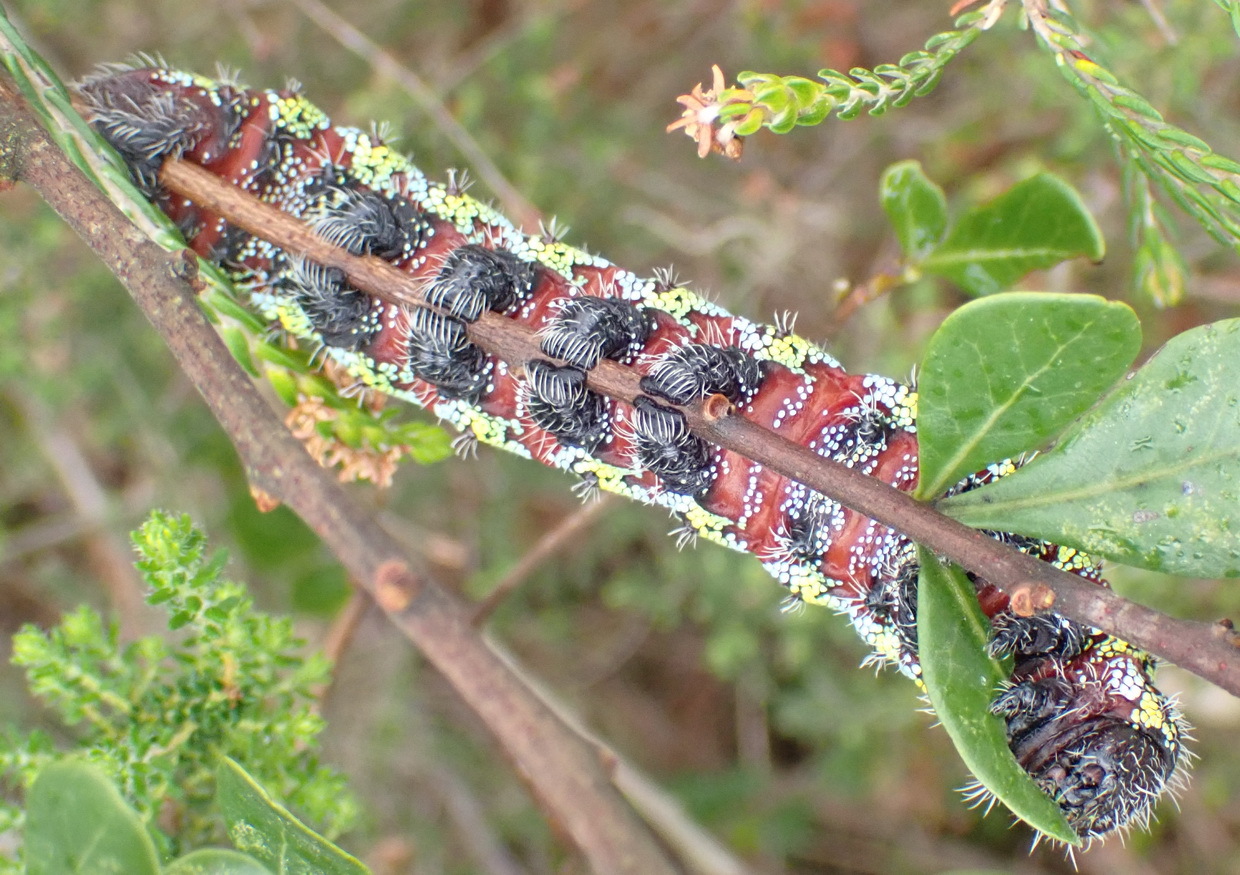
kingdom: Animalia
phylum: Arthropoda
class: Insecta
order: Lepidoptera
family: Saturniidae
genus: Nudaurelia
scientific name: Nudaurelia cytherea
